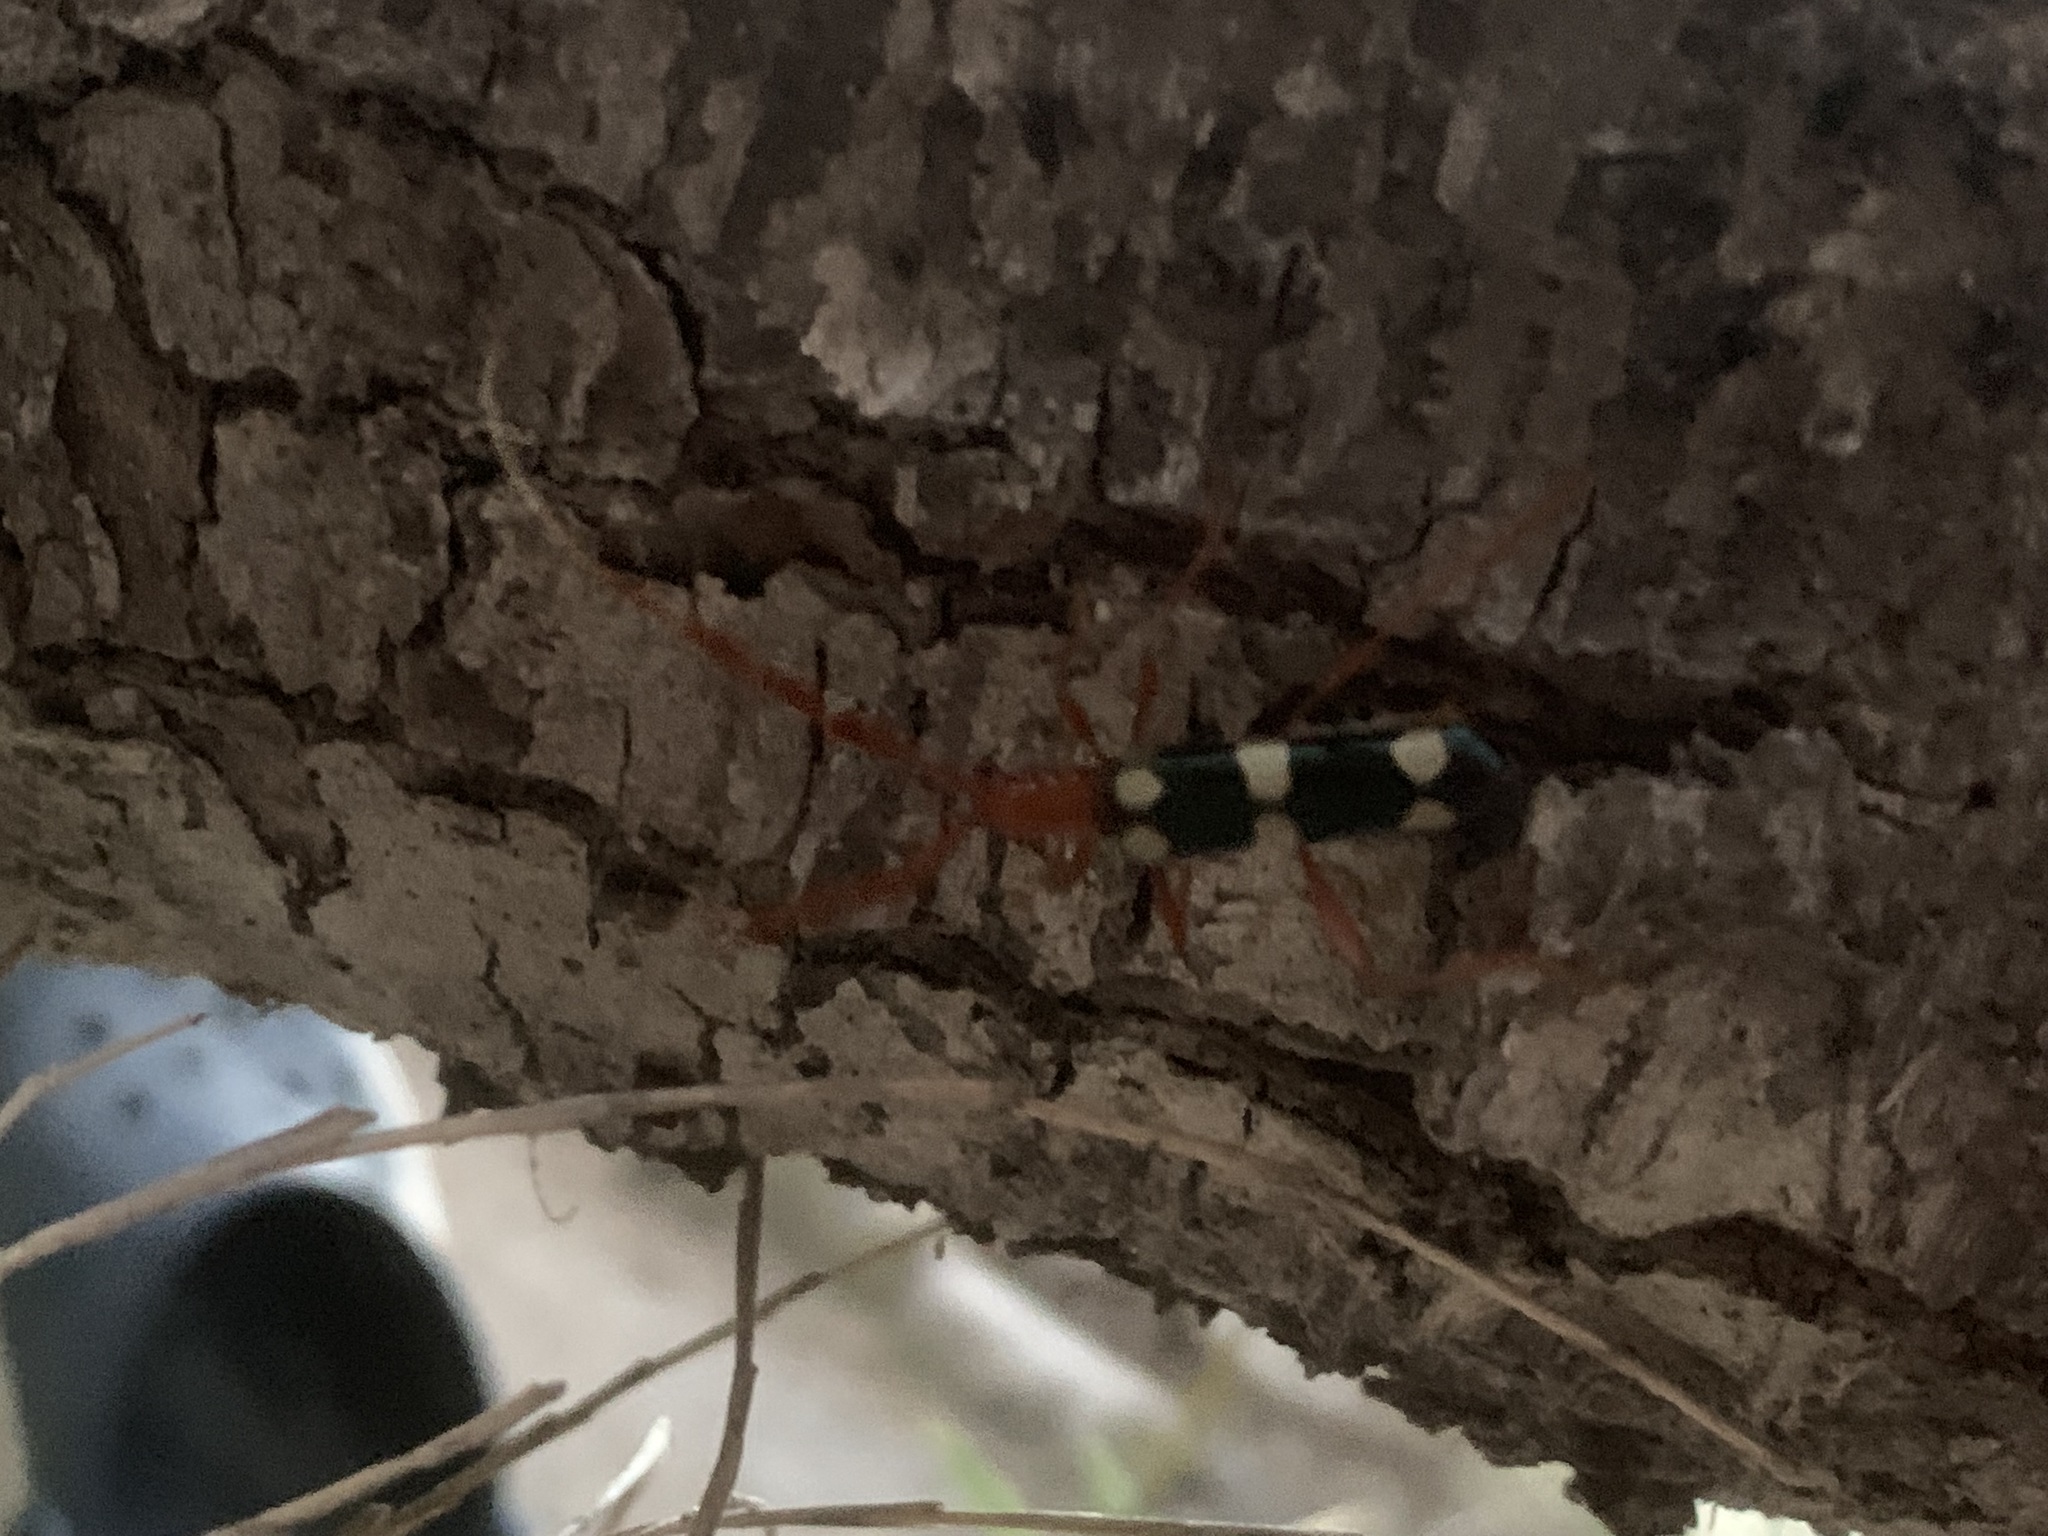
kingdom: Animalia
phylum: Arthropoda
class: Insecta
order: Coleoptera
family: Cerambycidae
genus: Achenoderus
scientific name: Achenoderus octomaculatus
